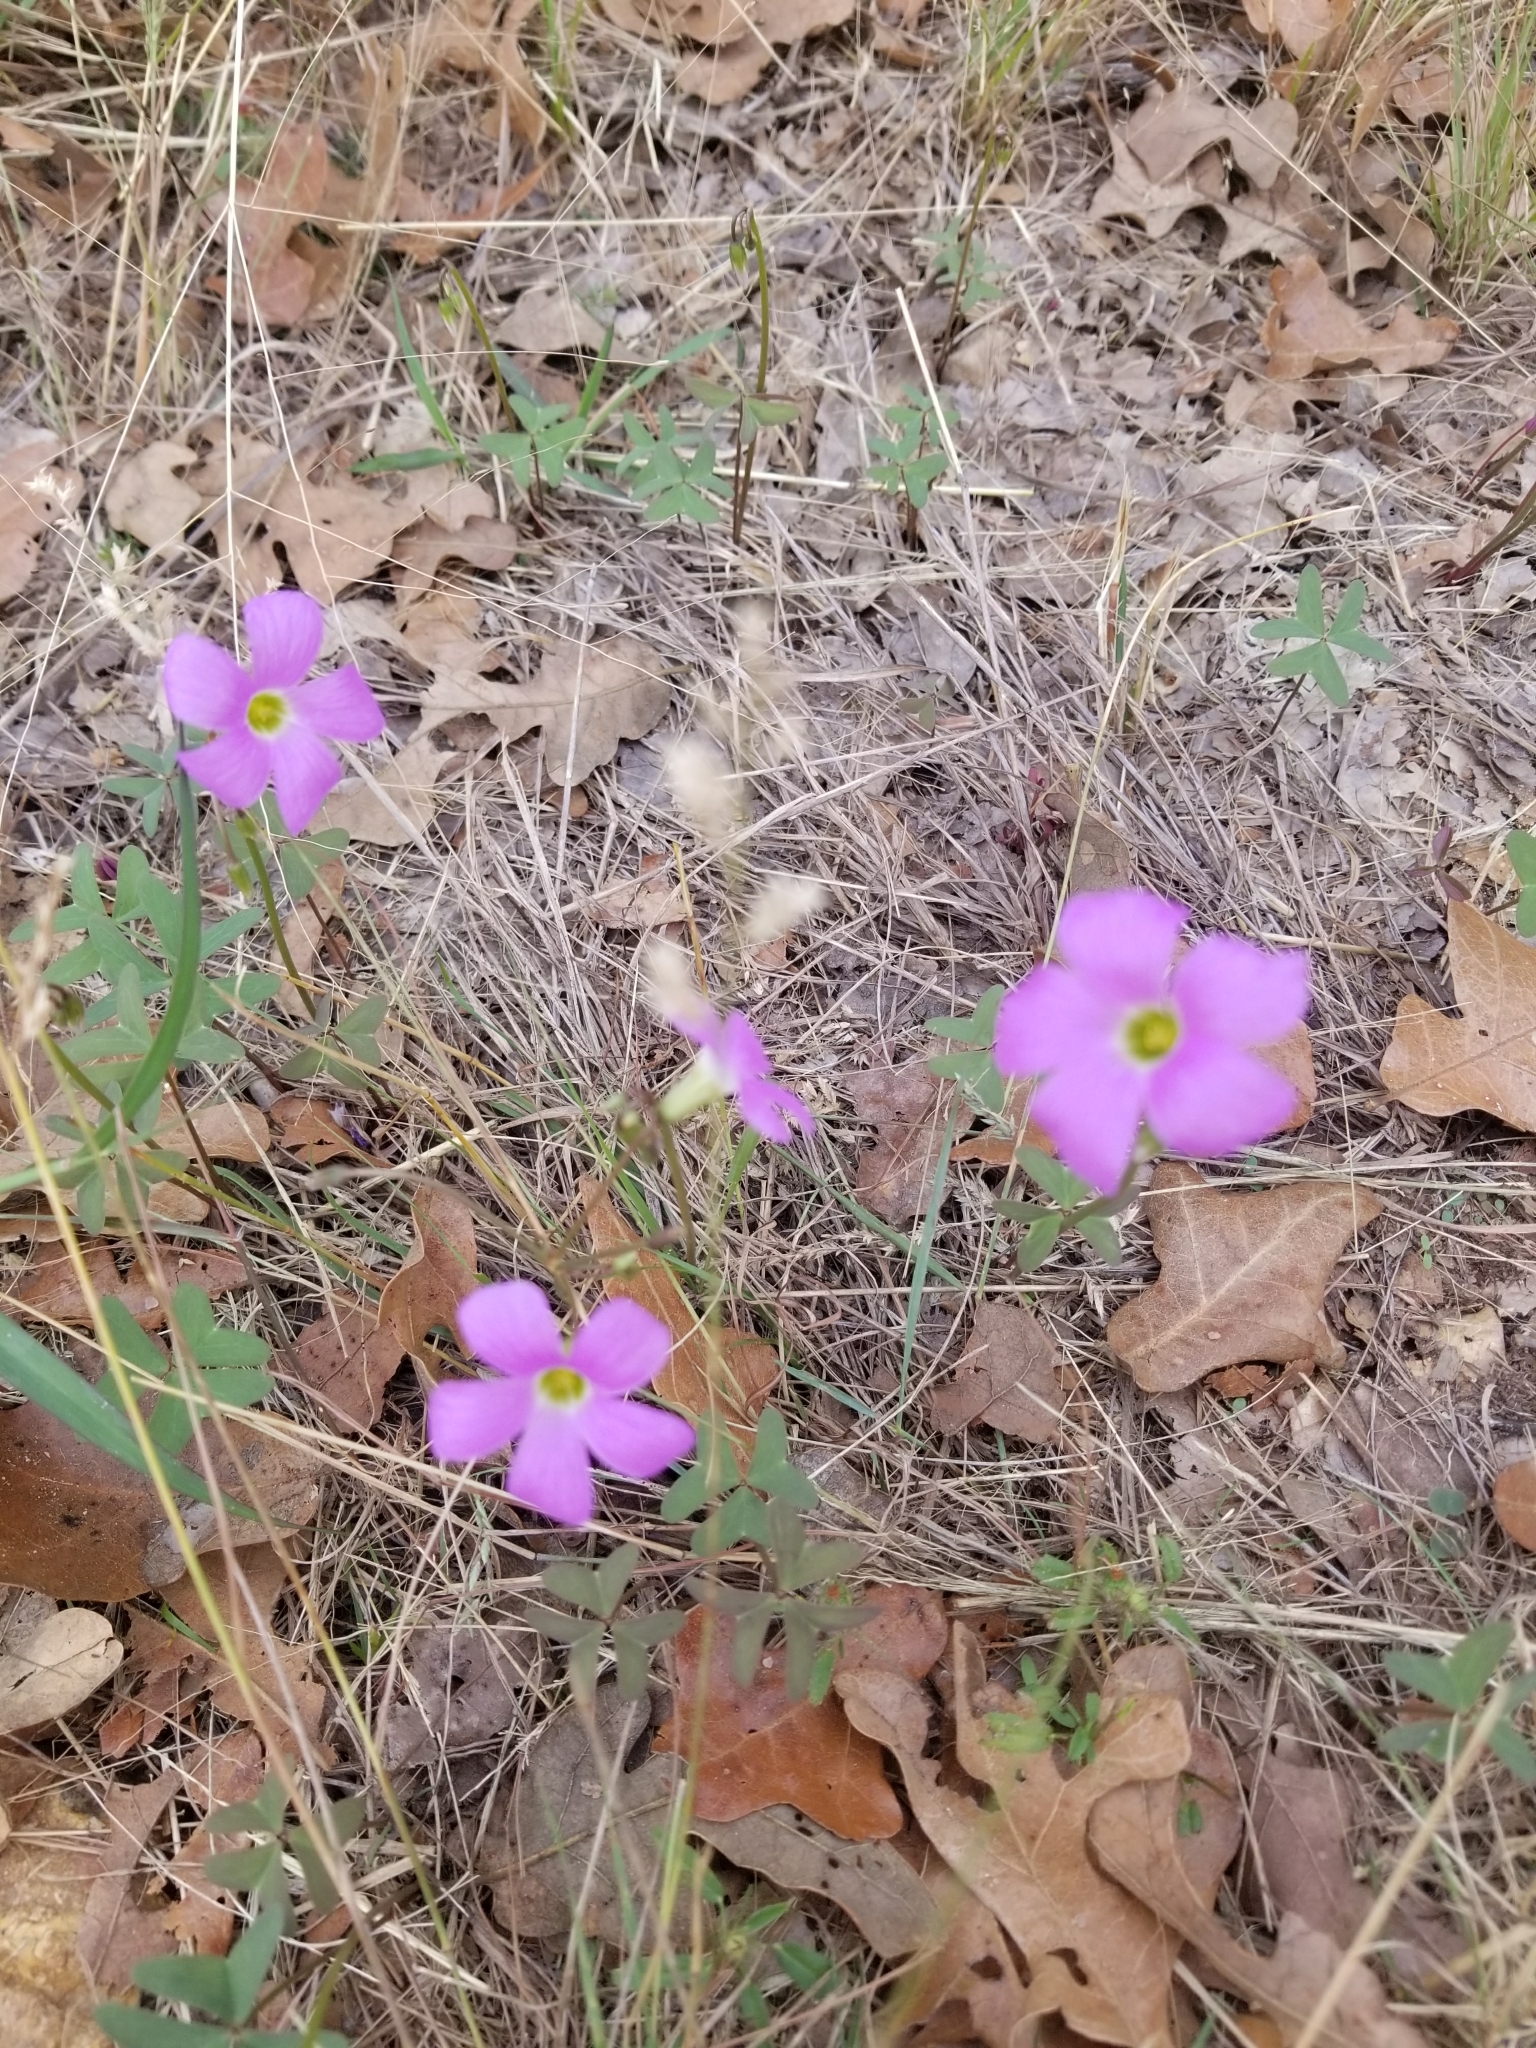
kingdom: Plantae
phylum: Tracheophyta
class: Magnoliopsida
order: Oxalidales
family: Oxalidaceae
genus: Oxalis
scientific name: Oxalis drummondii
